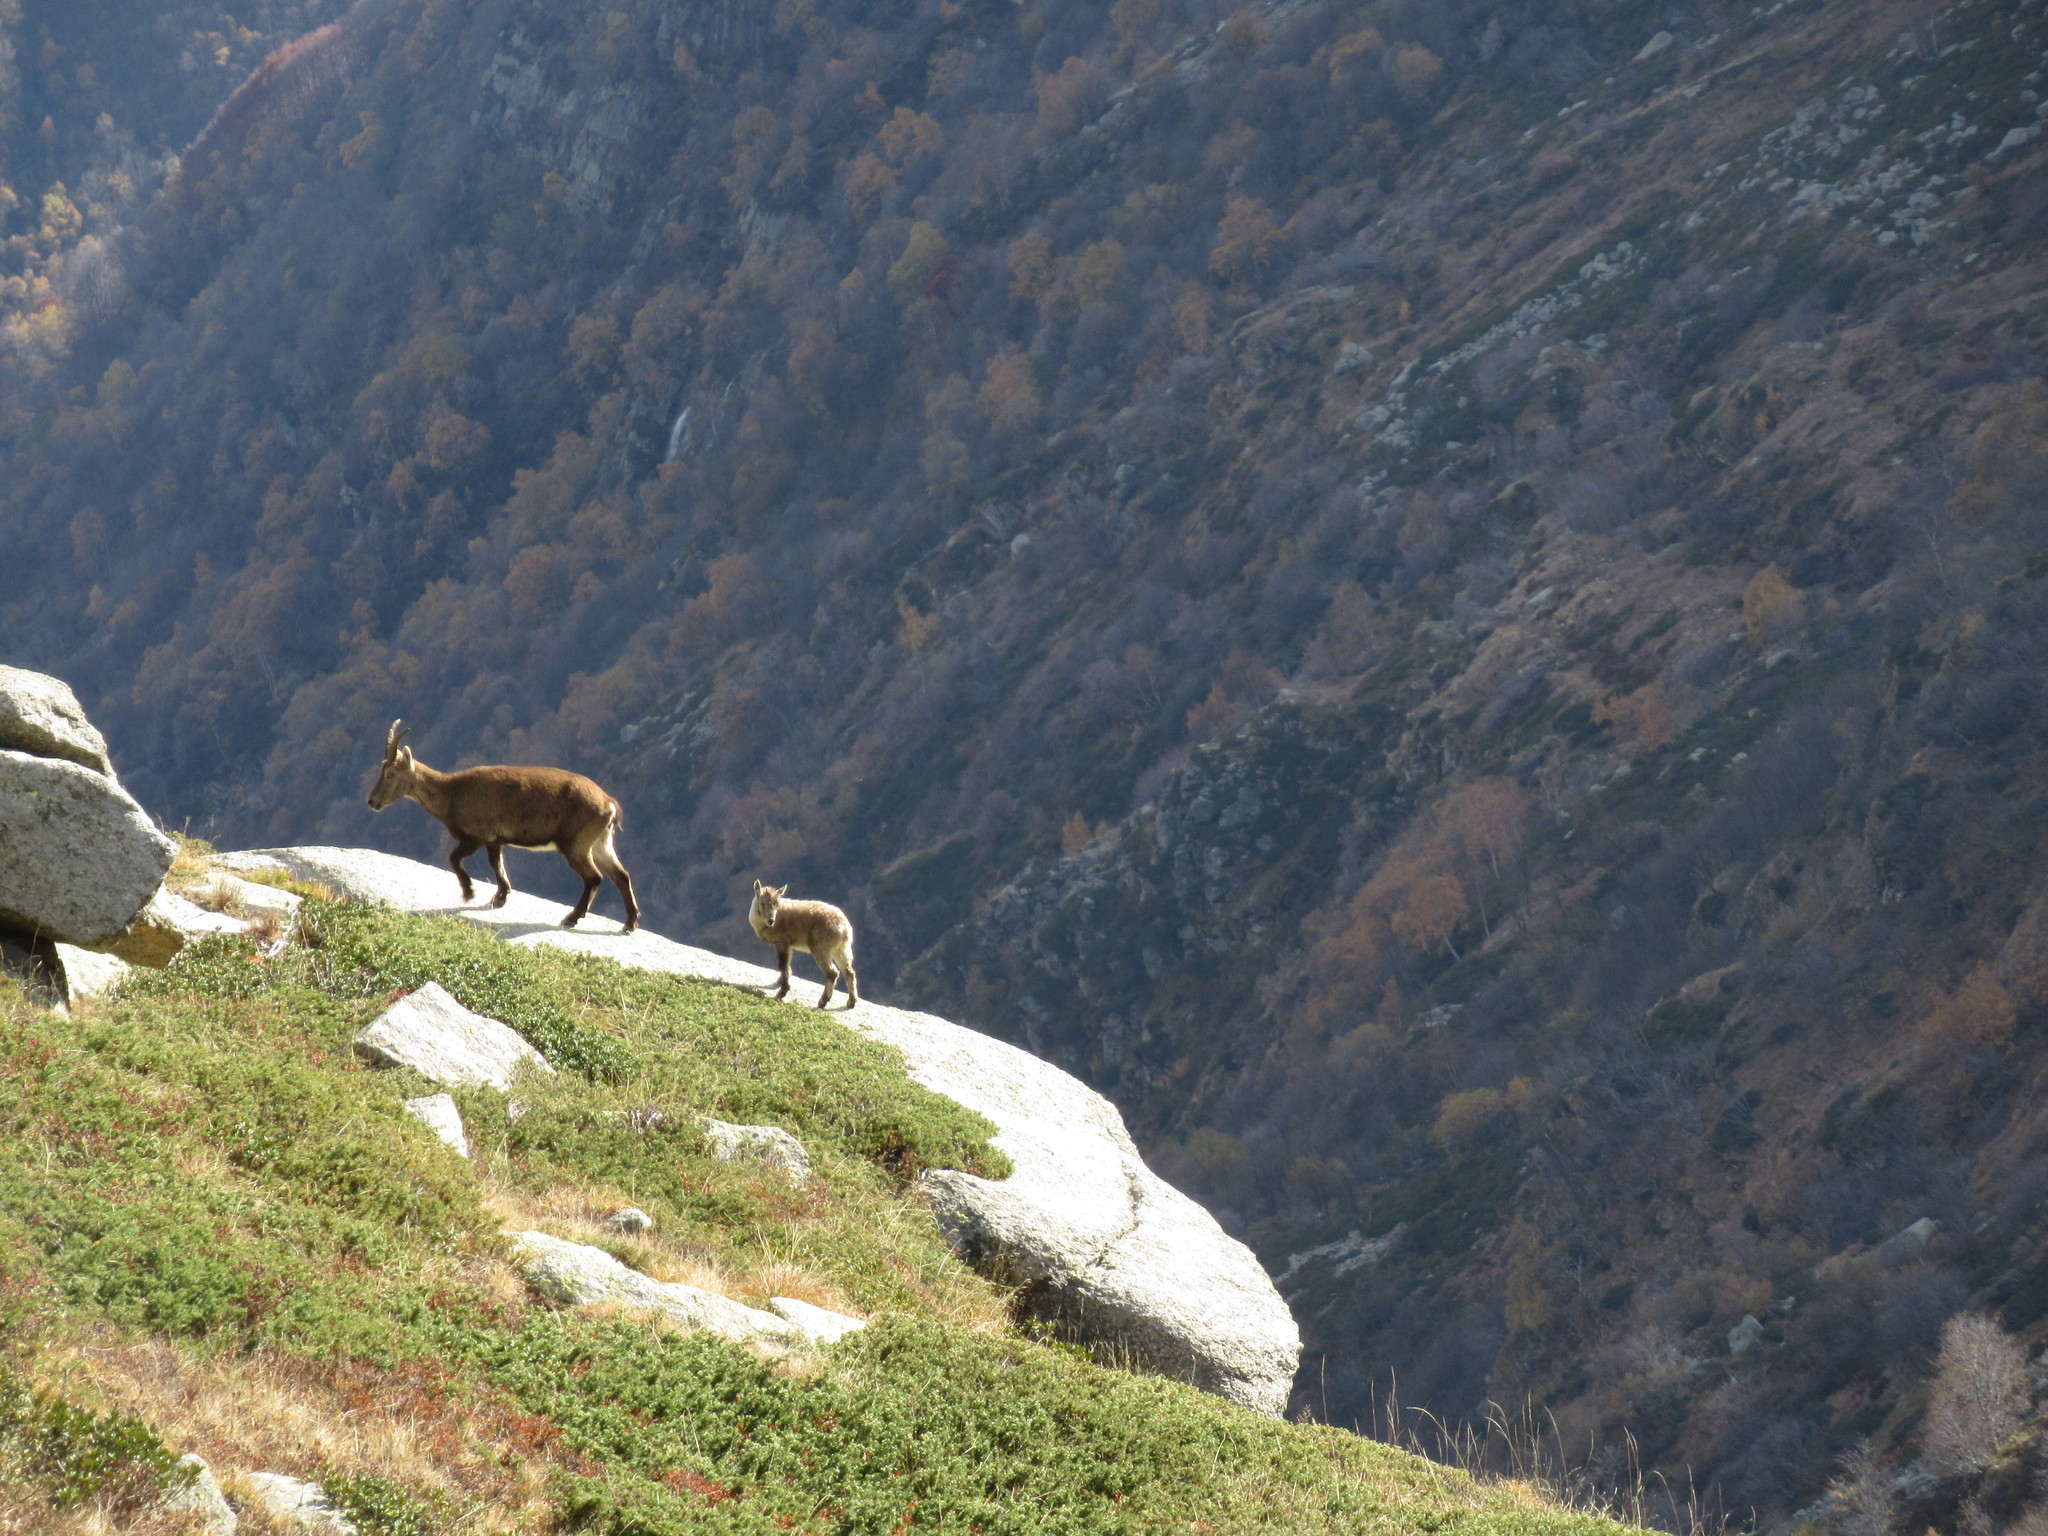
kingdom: Animalia
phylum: Chordata
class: Mammalia
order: Artiodactyla
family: Bovidae
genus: Capra
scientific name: Capra ibex
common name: Alpine ibex
